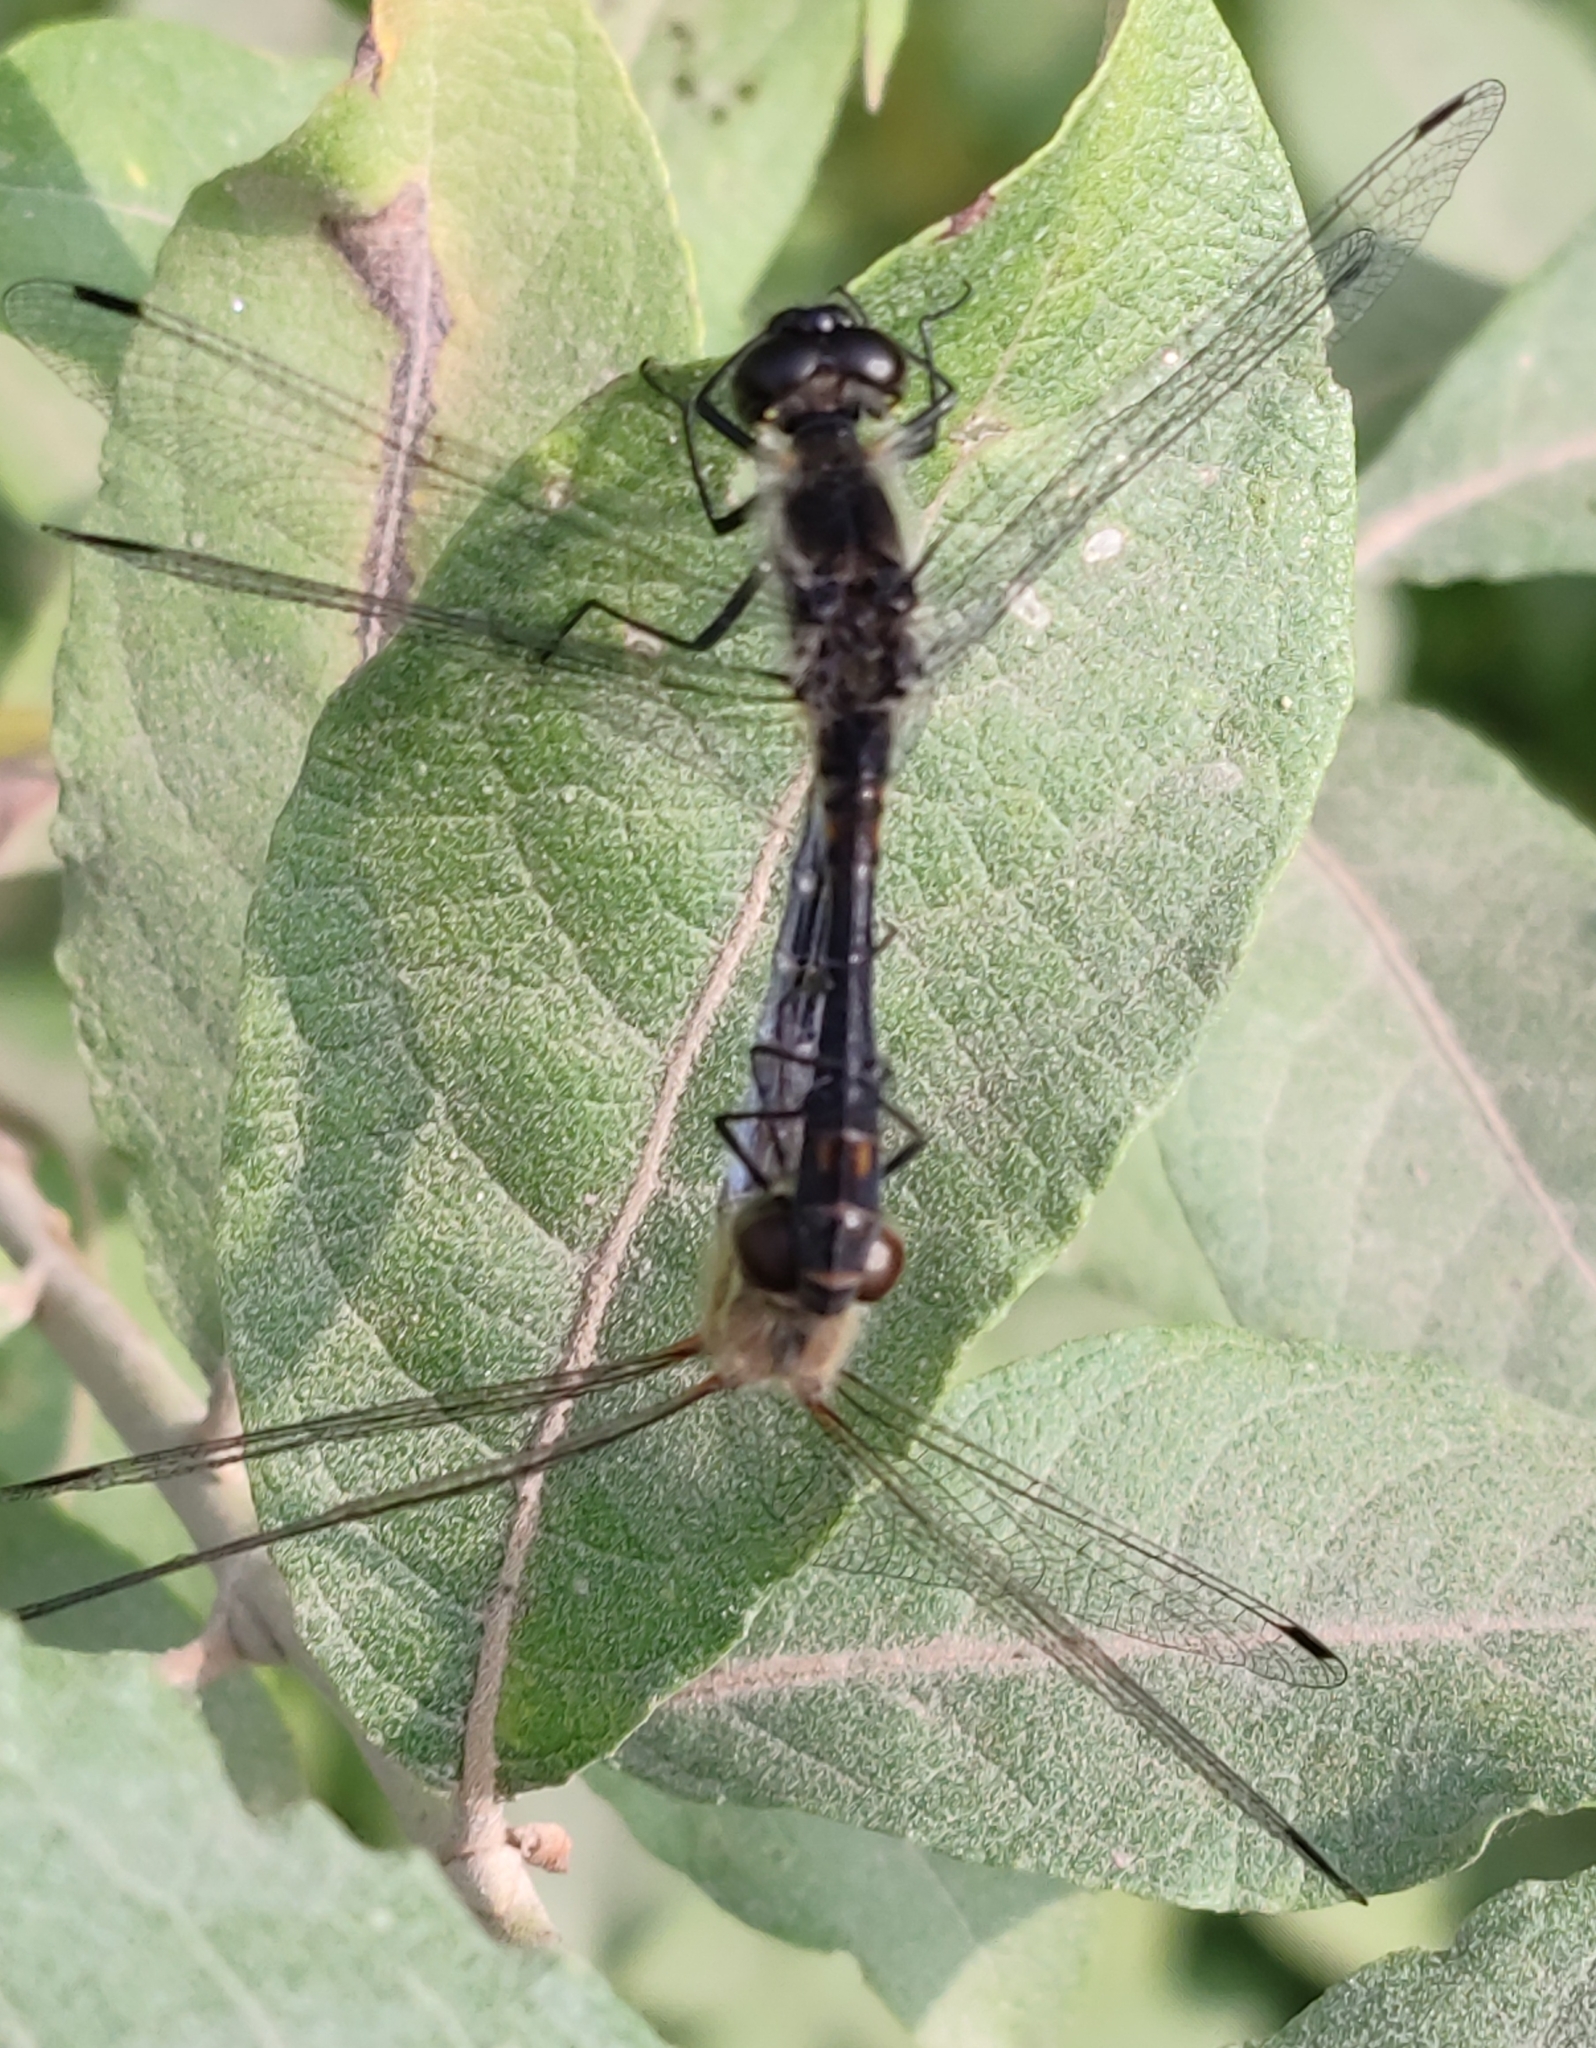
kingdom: Animalia
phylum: Arthropoda
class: Insecta
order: Odonata
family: Libellulidae
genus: Sympetrum
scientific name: Sympetrum danae
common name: Black darter
